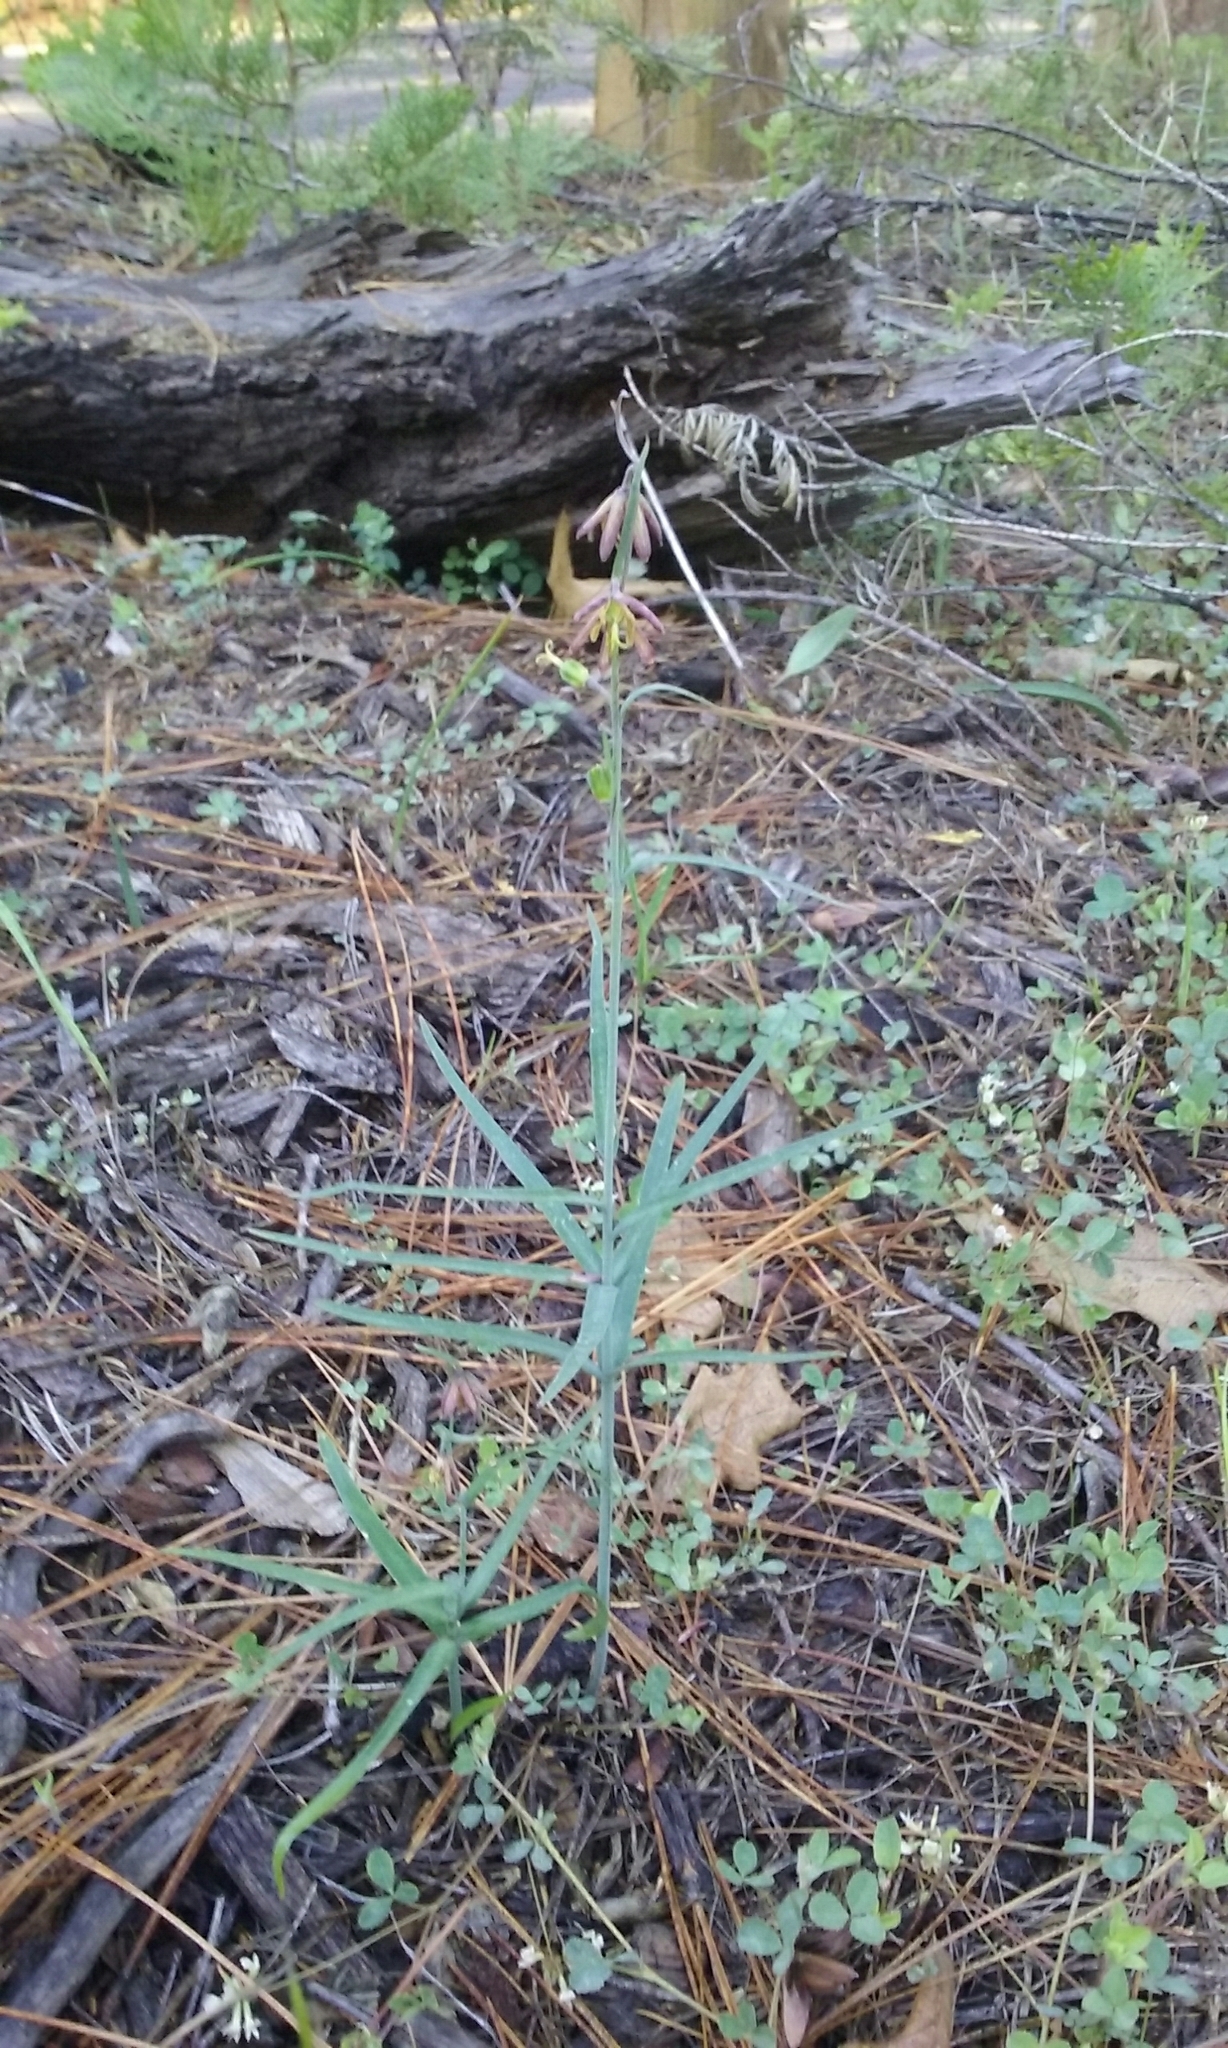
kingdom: Plantae
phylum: Tracheophyta
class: Liliopsida
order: Liliales
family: Liliaceae
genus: Fritillaria
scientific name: Fritillaria micrantha
